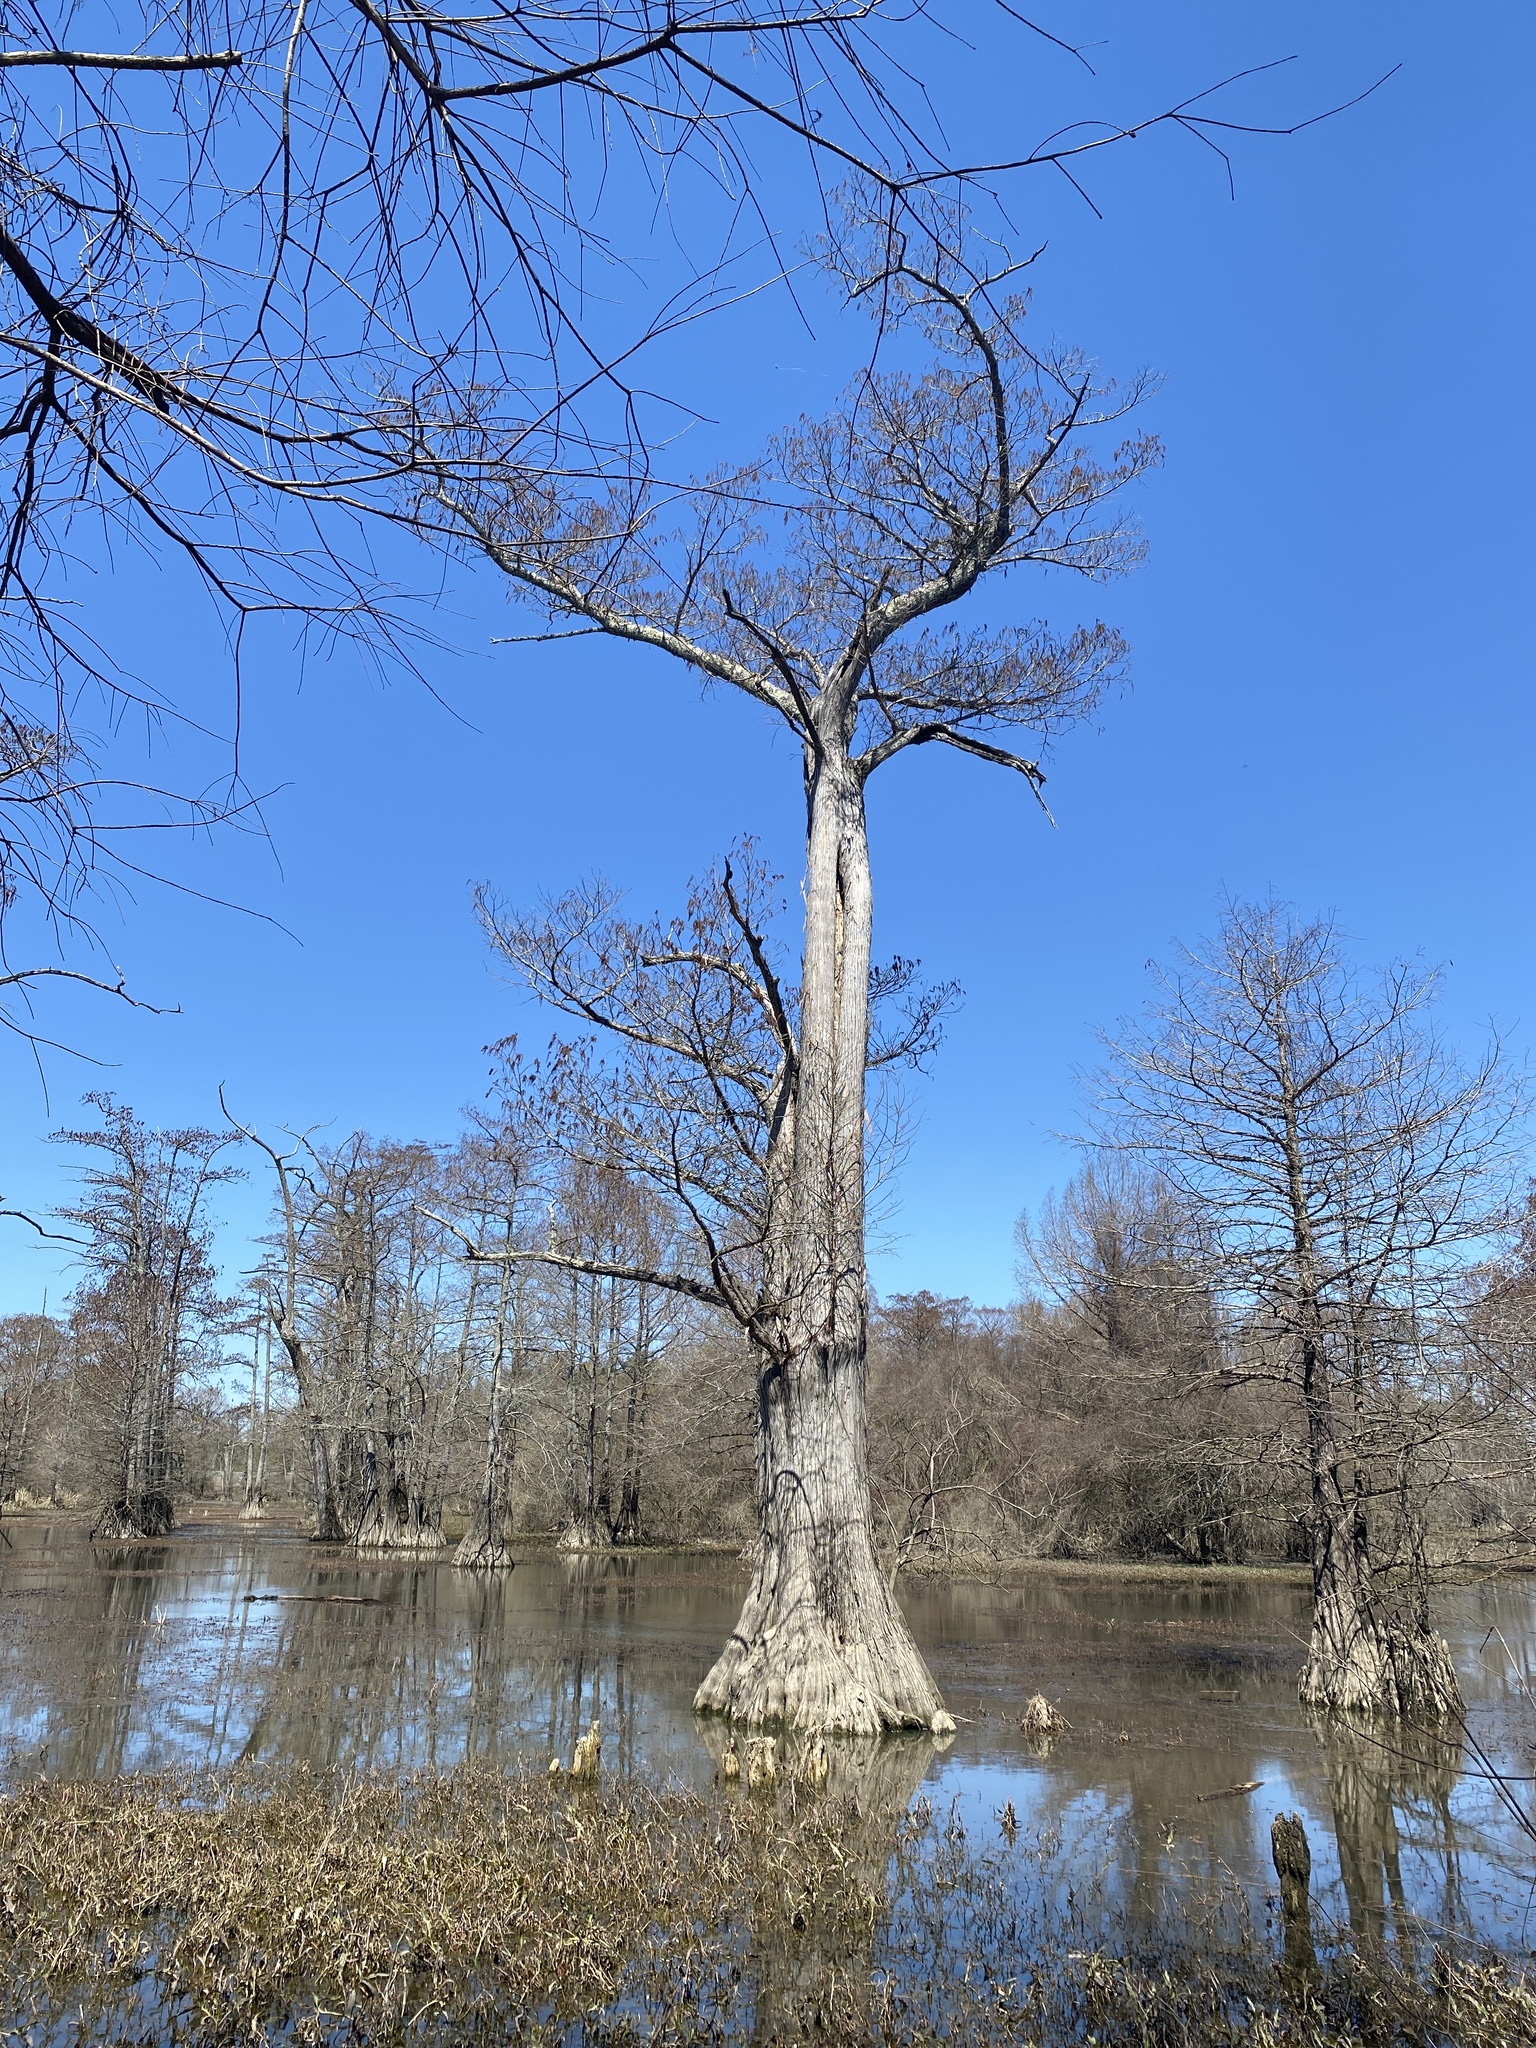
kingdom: Plantae
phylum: Tracheophyta
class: Pinopsida
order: Pinales
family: Cupressaceae
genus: Taxodium
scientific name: Taxodium distichum
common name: Bald cypress
